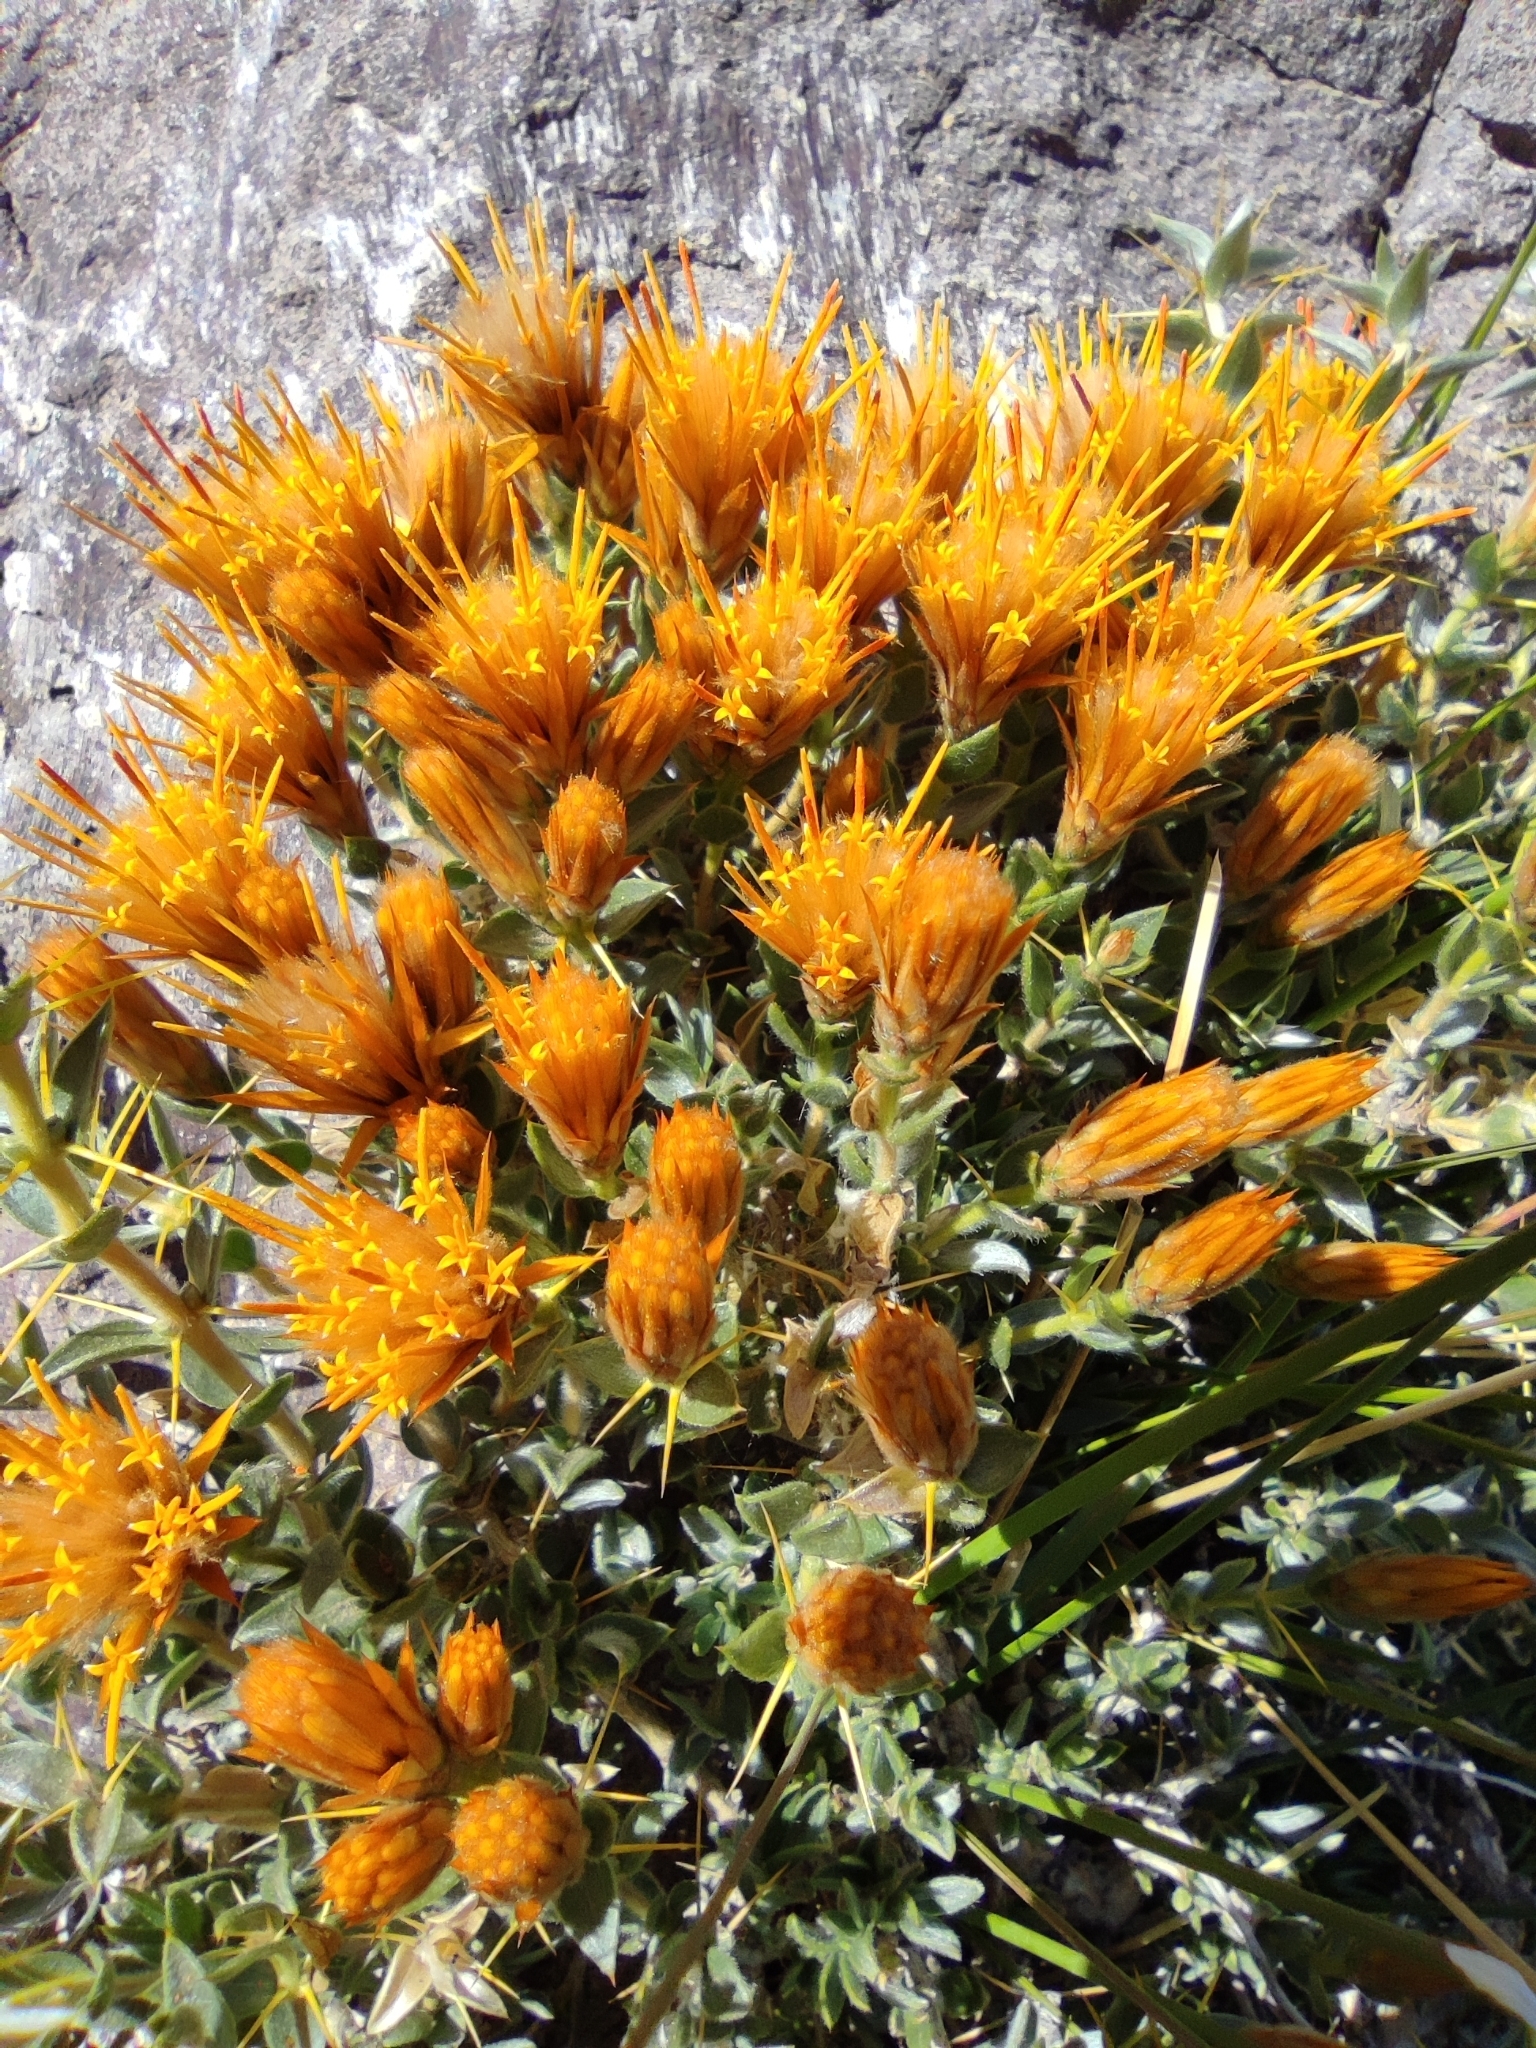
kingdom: Plantae
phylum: Tracheophyta
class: Magnoliopsida
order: Asterales
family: Asteraceae
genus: Chuquiraga
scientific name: Chuquiraga oppositifolia
